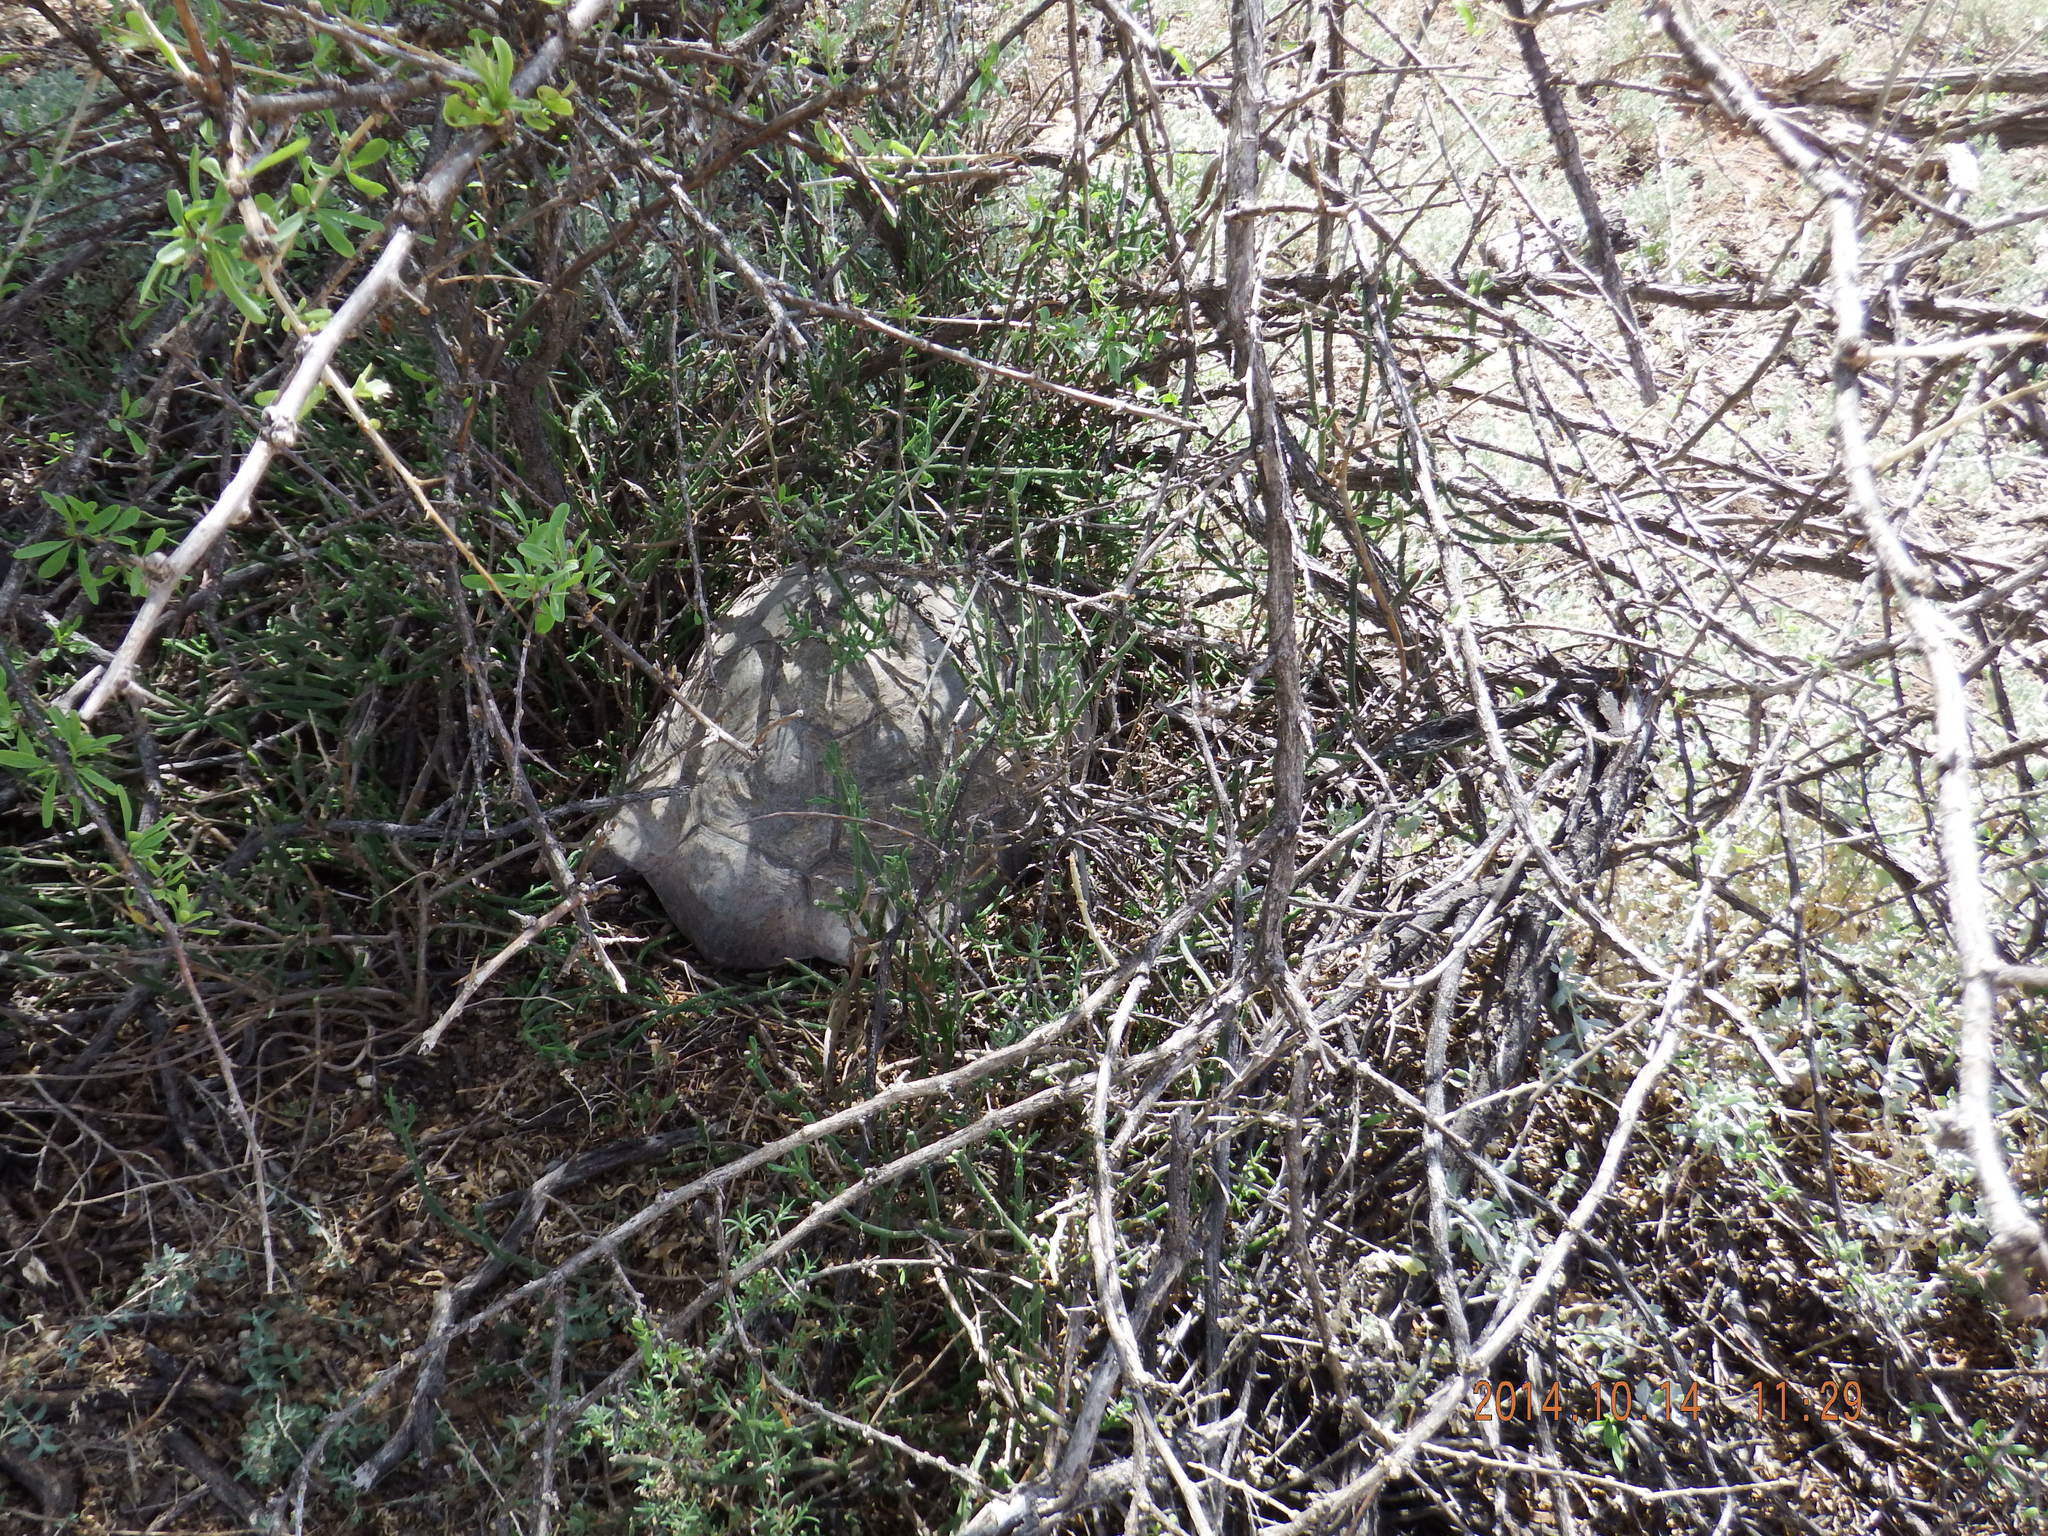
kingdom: Animalia
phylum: Chordata
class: Testudines
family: Testudinidae
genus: Stigmochelys
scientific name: Stigmochelys pardalis
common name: Leopard tortoise
